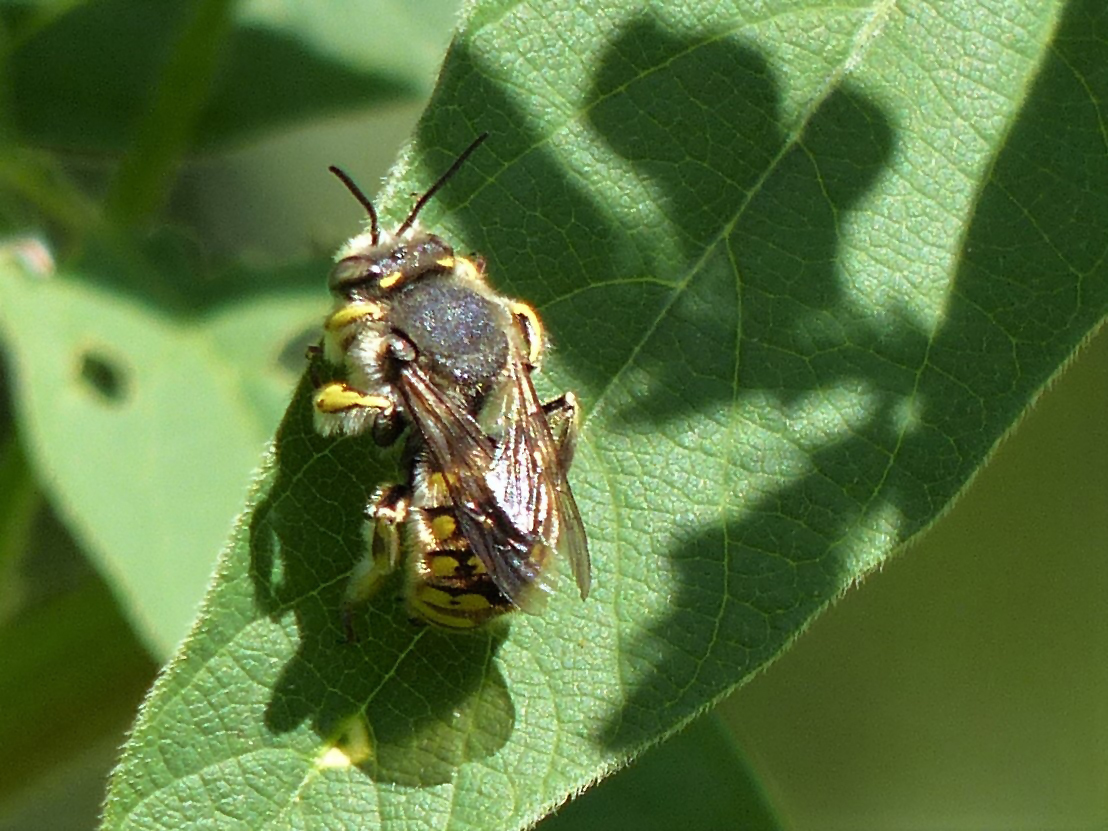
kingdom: Animalia
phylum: Arthropoda
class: Insecta
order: Hymenoptera
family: Megachilidae
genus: Anthidium
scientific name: Anthidium manicatum
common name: Wool carder bee
